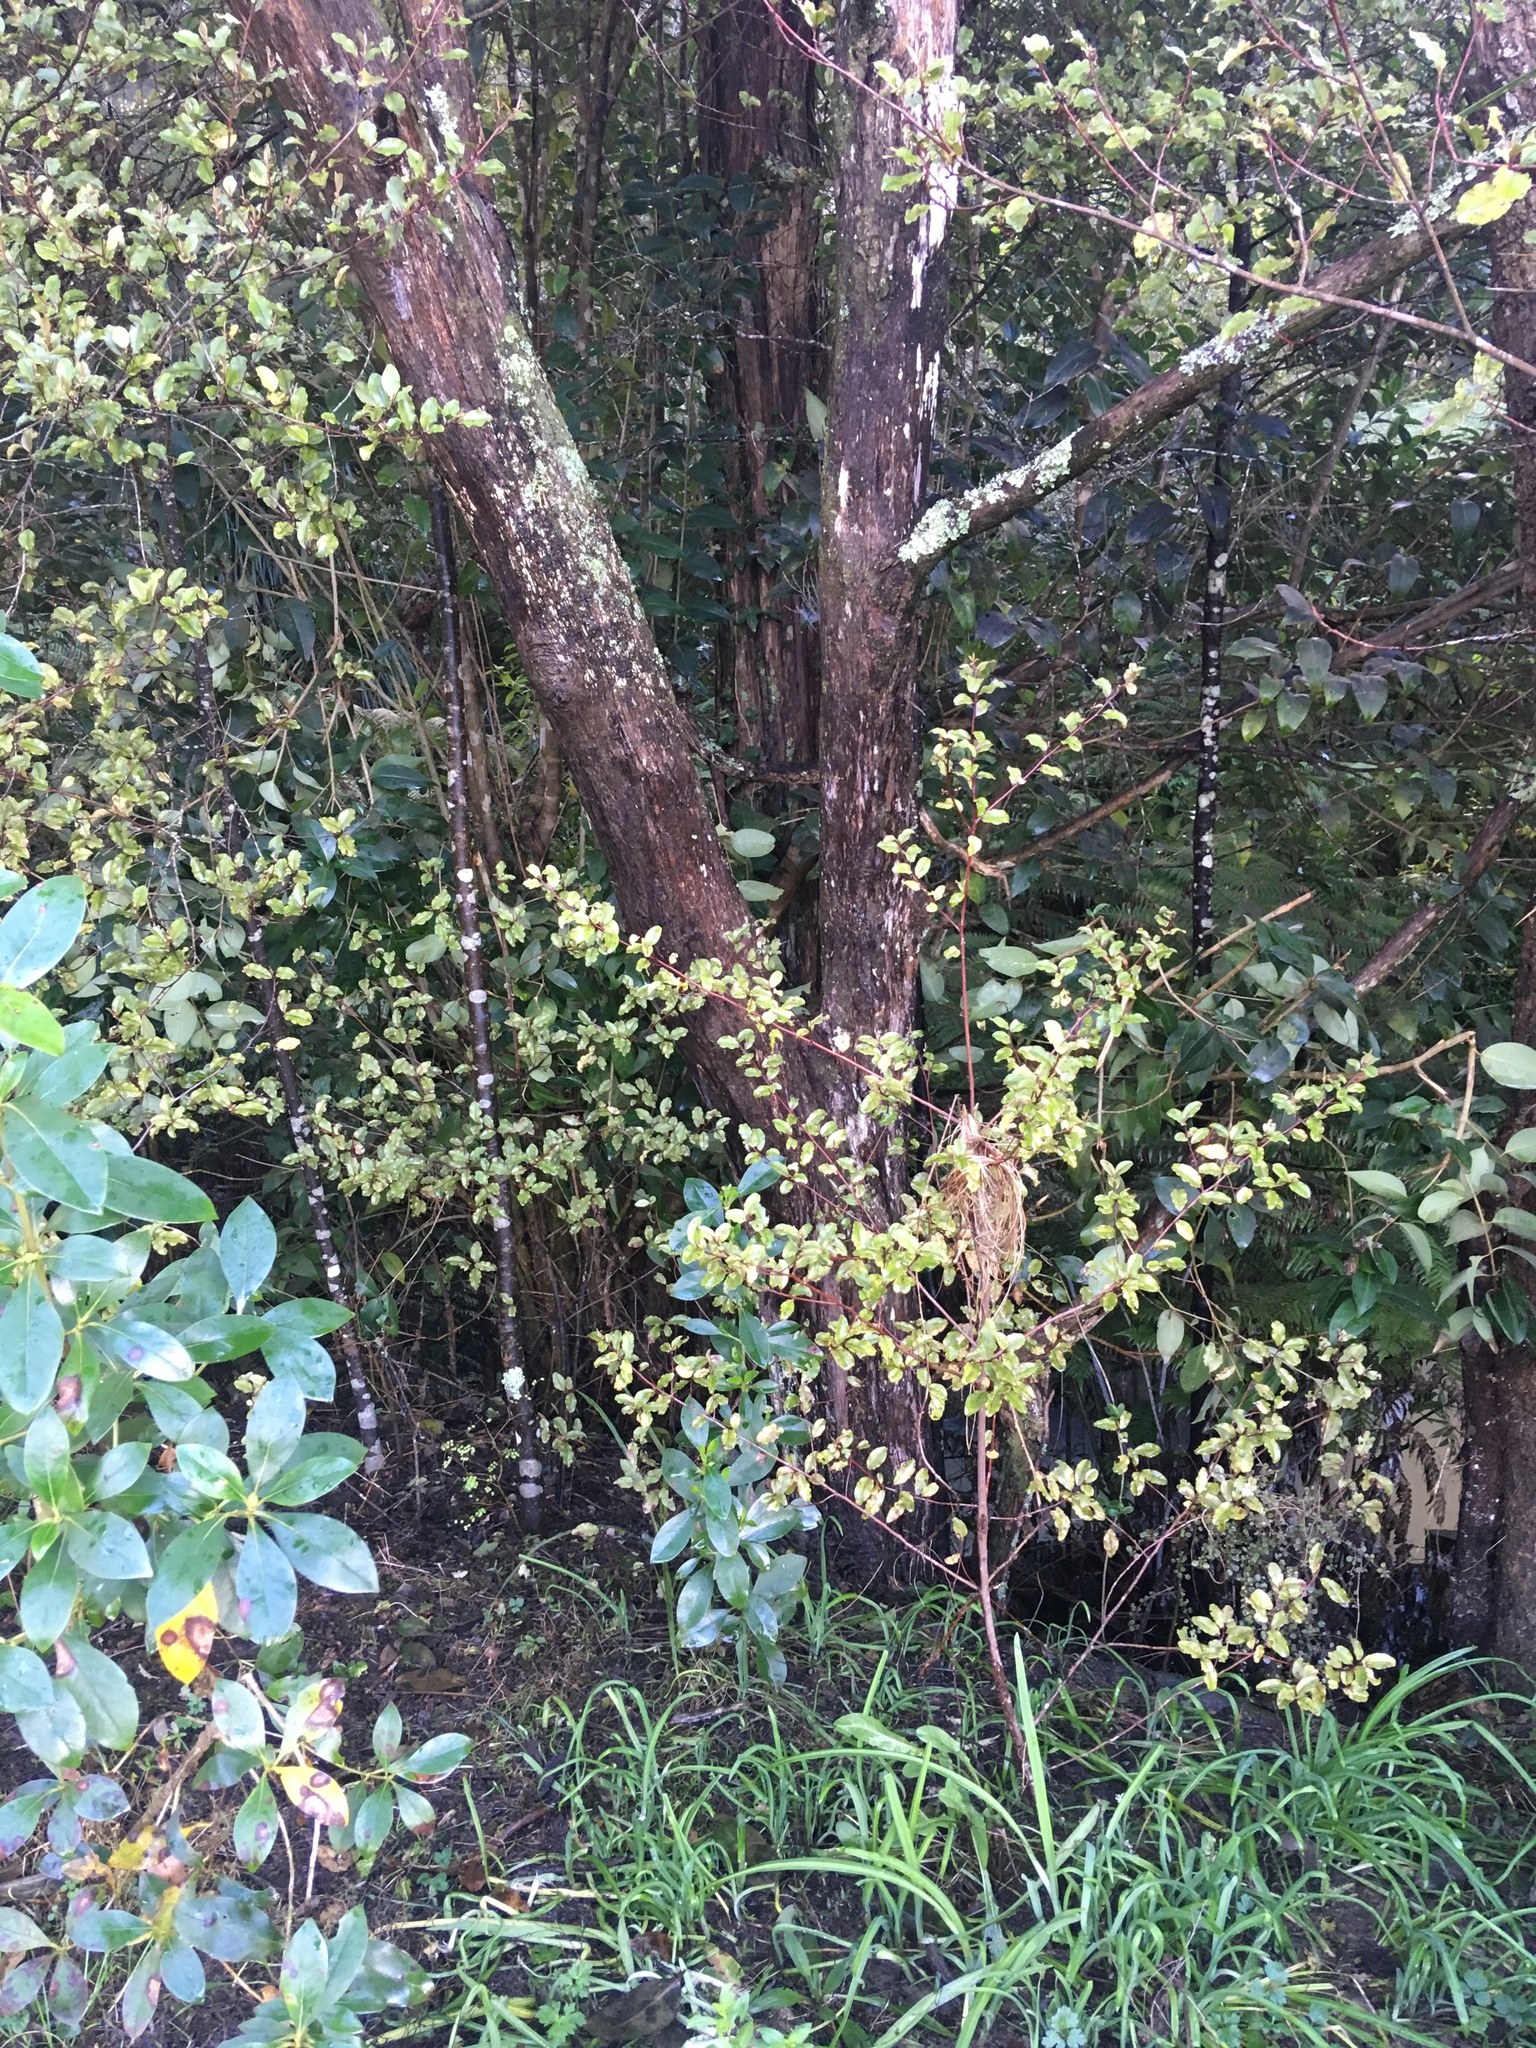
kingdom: Plantae
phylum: Tracheophyta
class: Liliopsida
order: Asparagales
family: Amaryllidaceae
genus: Allium
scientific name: Allium triquetrum
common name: Three-cornered garlic
